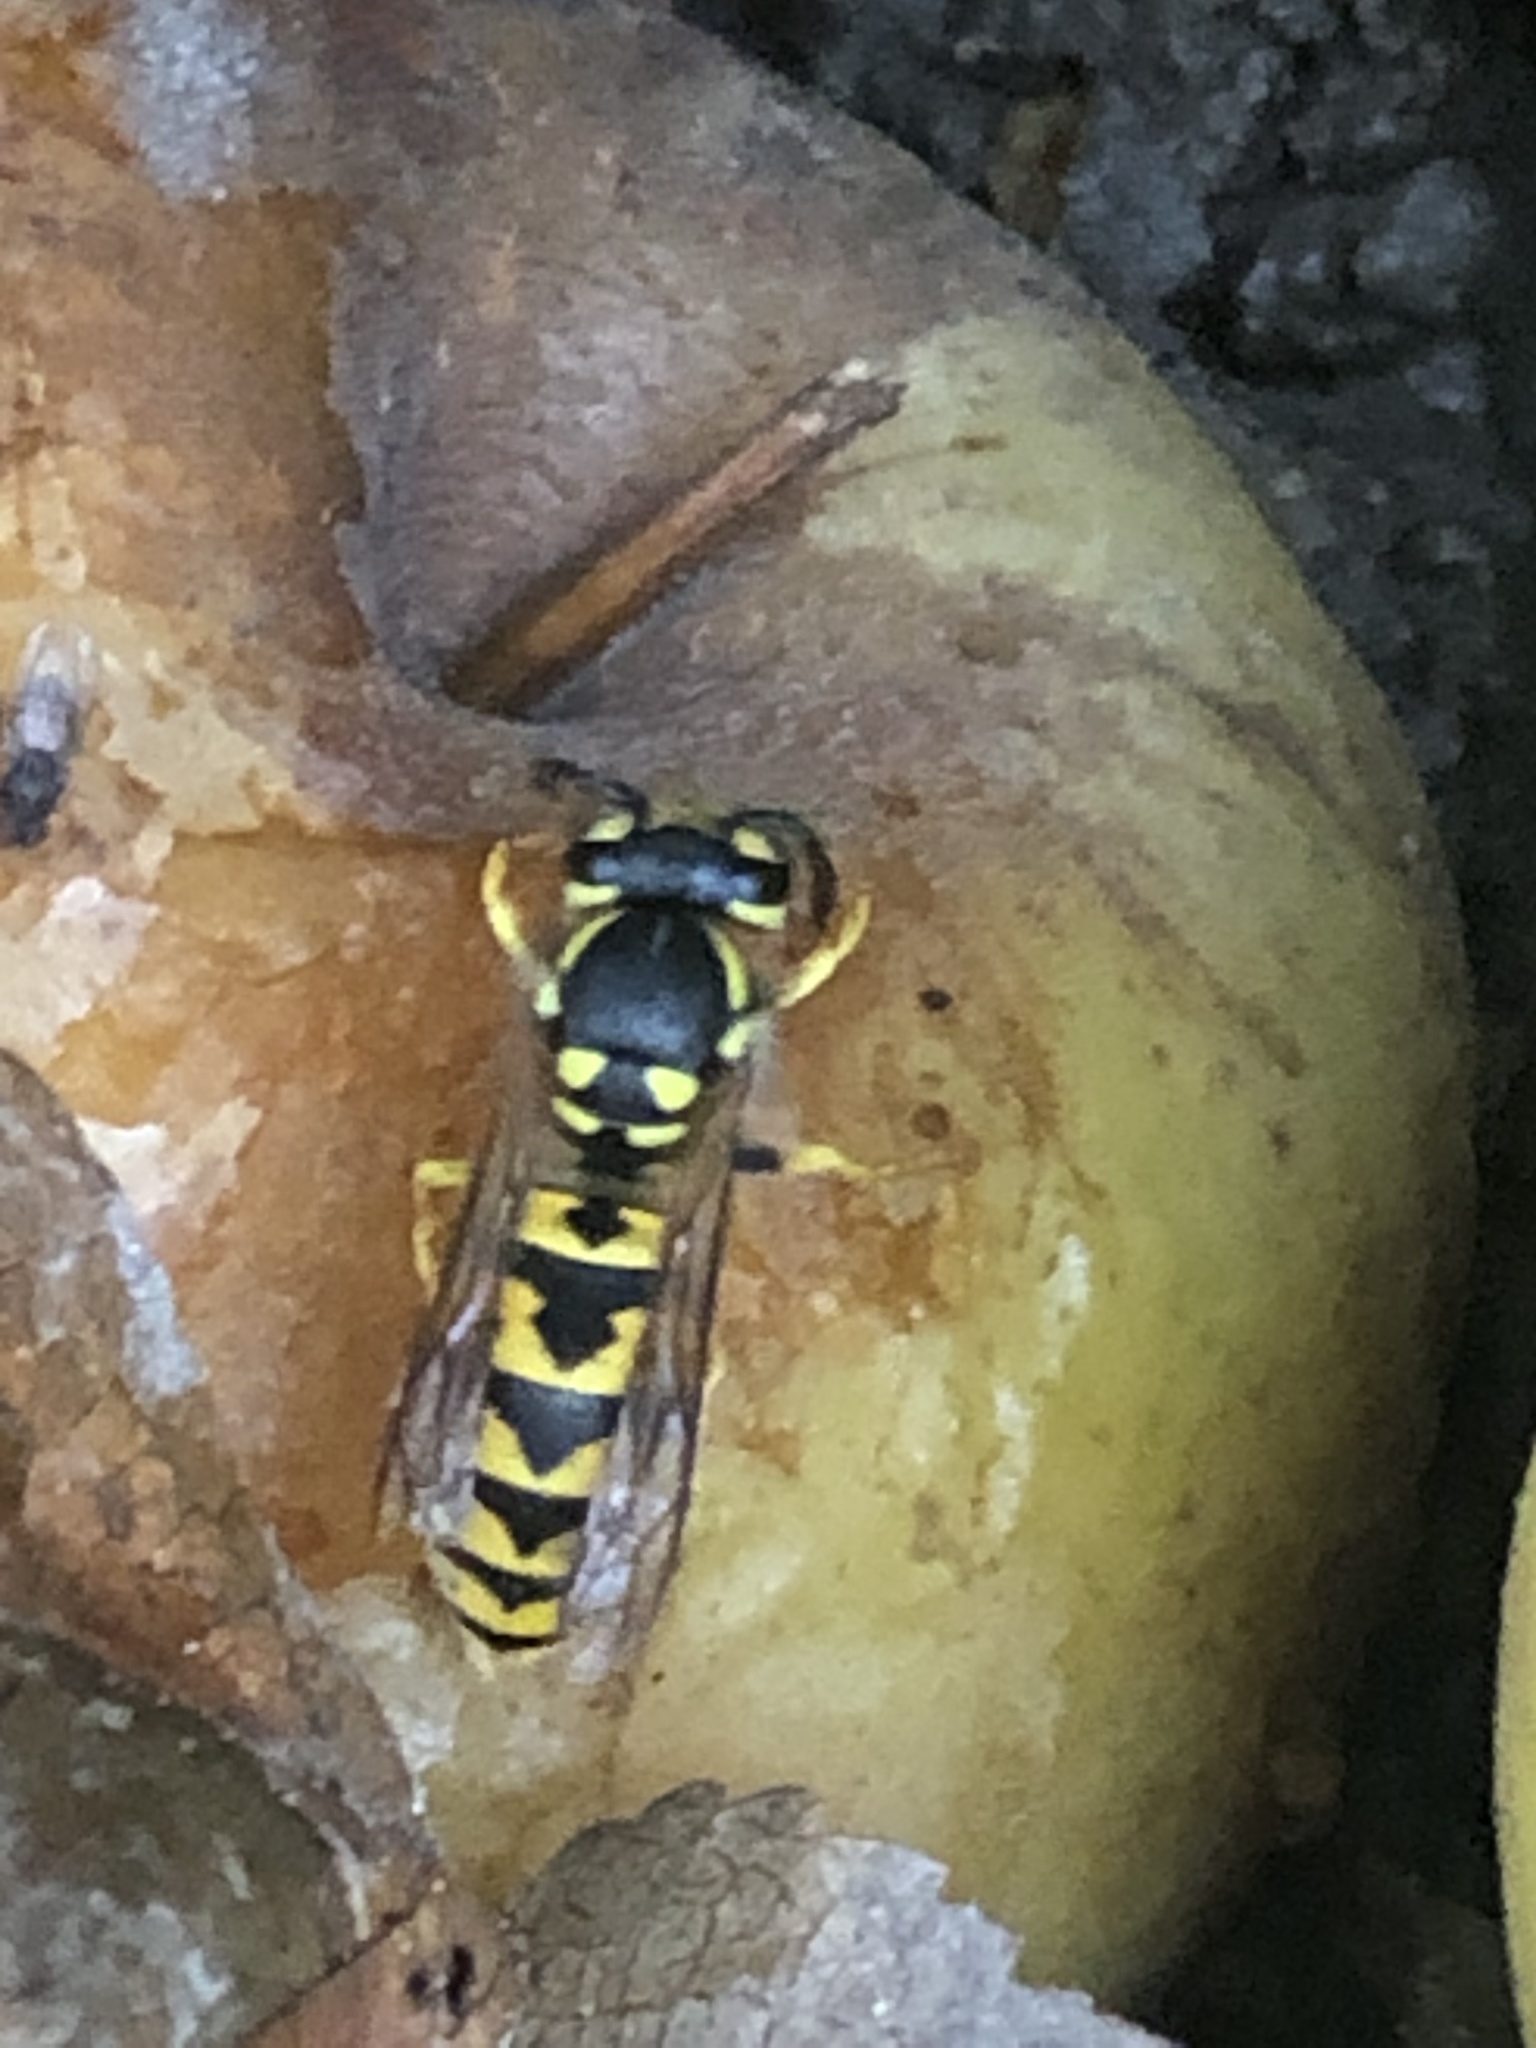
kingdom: Animalia
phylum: Arthropoda
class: Insecta
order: Hymenoptera
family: Vespidae
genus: Vespula
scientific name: Vespula germanica
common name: German wasp
